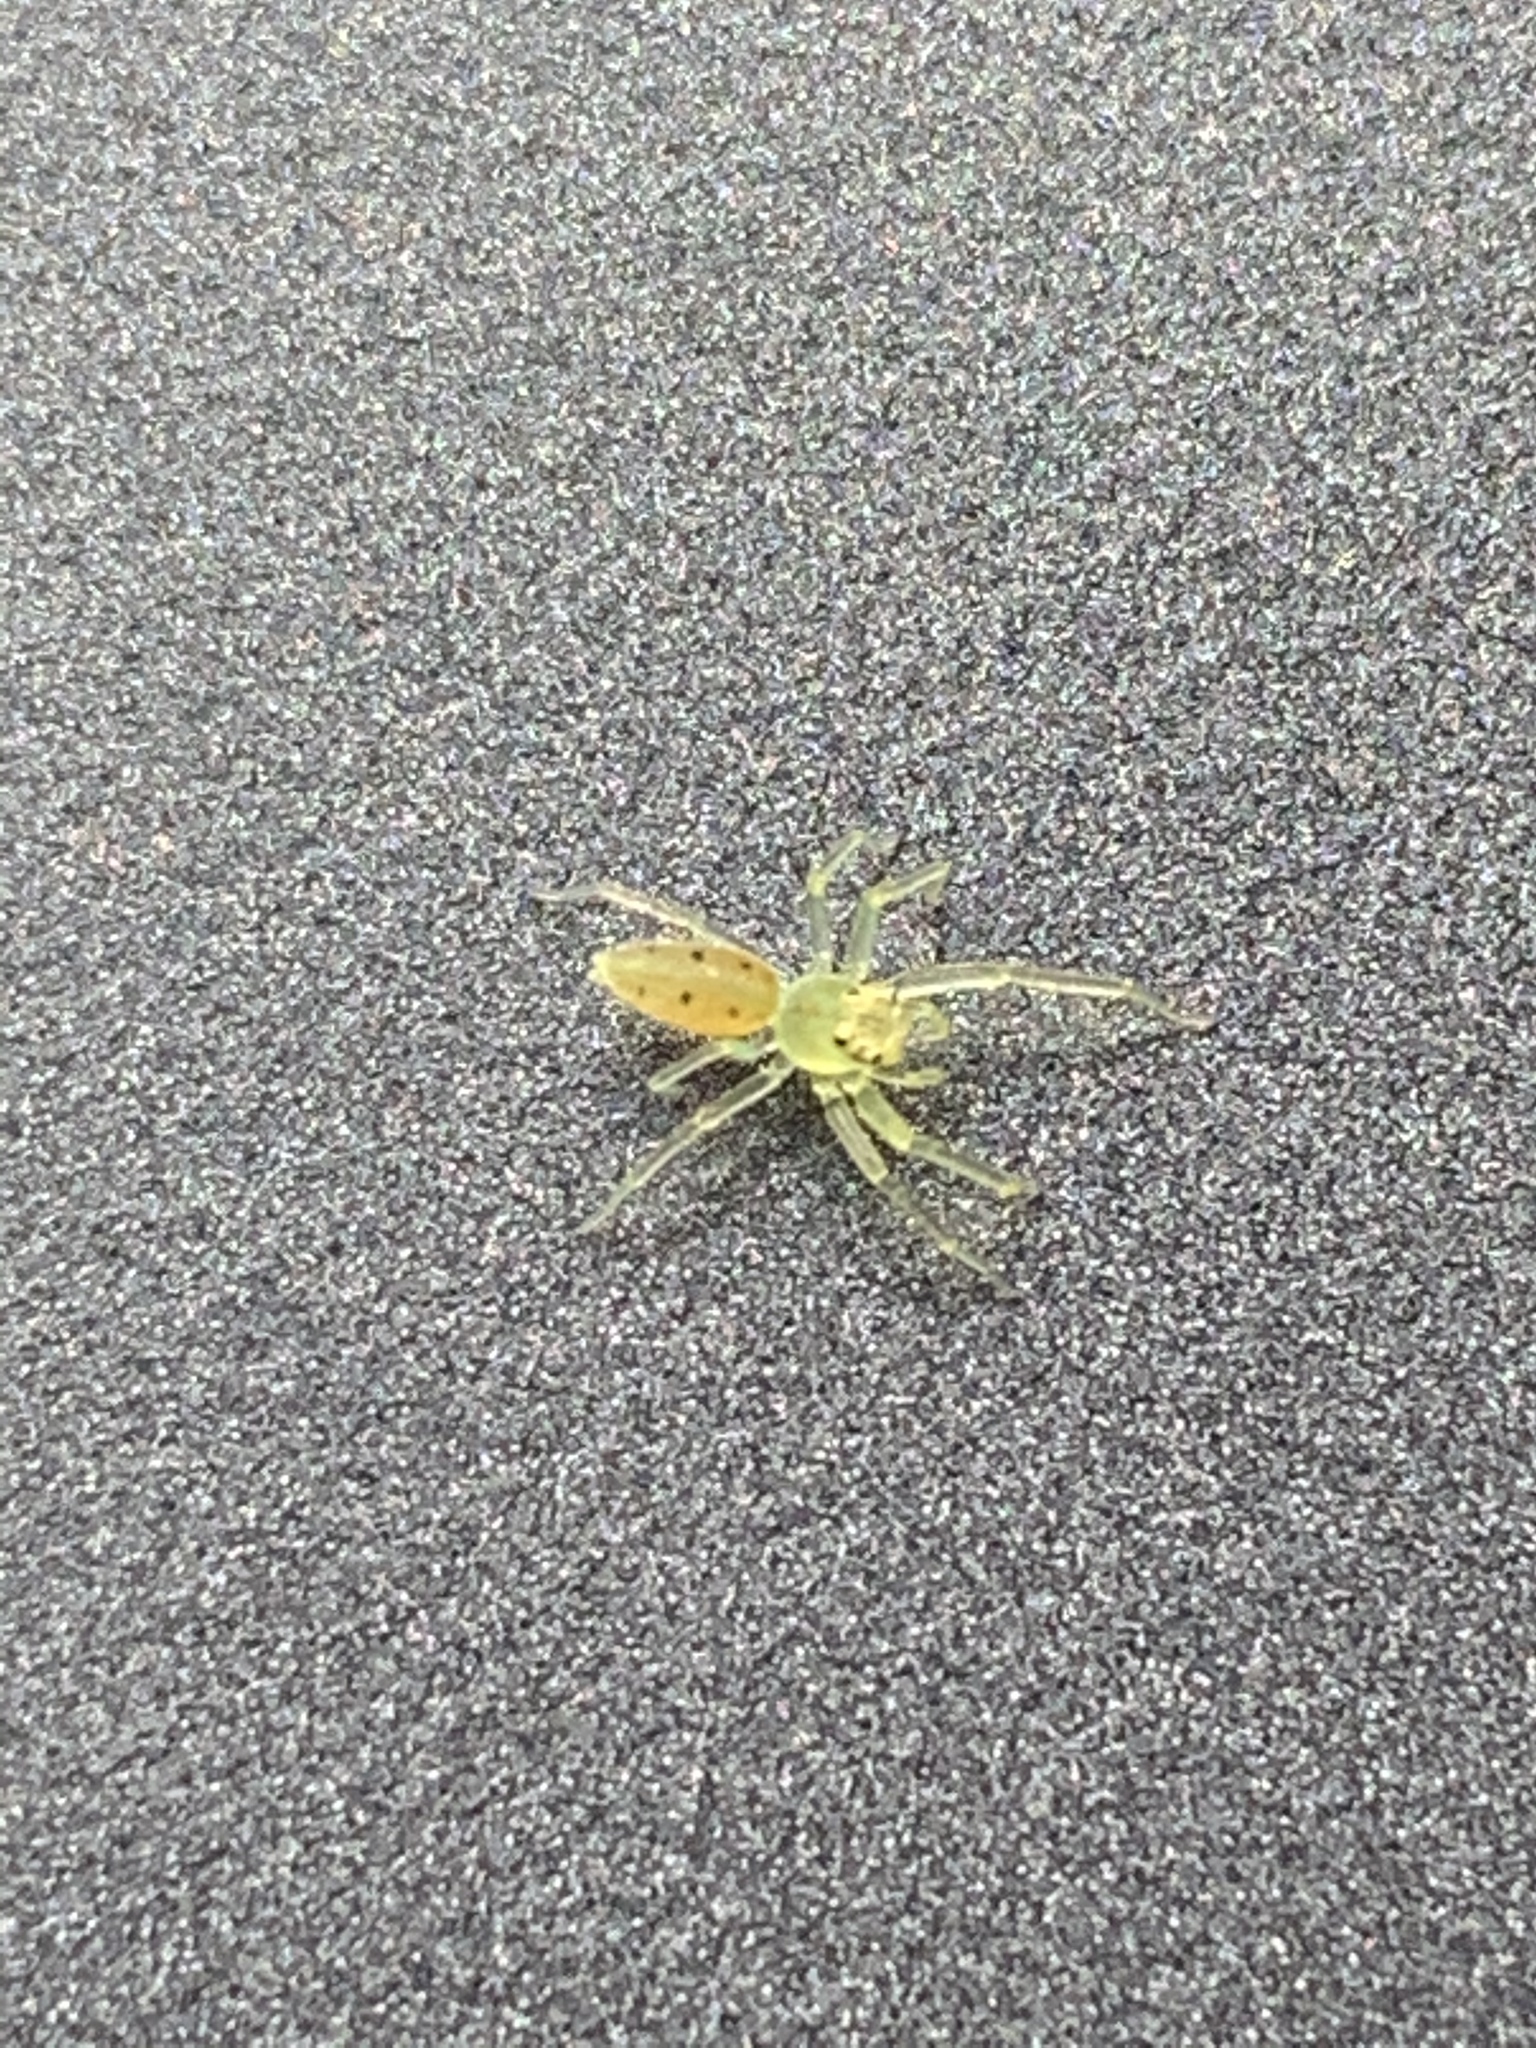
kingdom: Animalia
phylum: Arthropoda
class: Arachnida
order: Araneae
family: Salticidae
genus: Lyssomanes
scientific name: Lyssomanes viridis
